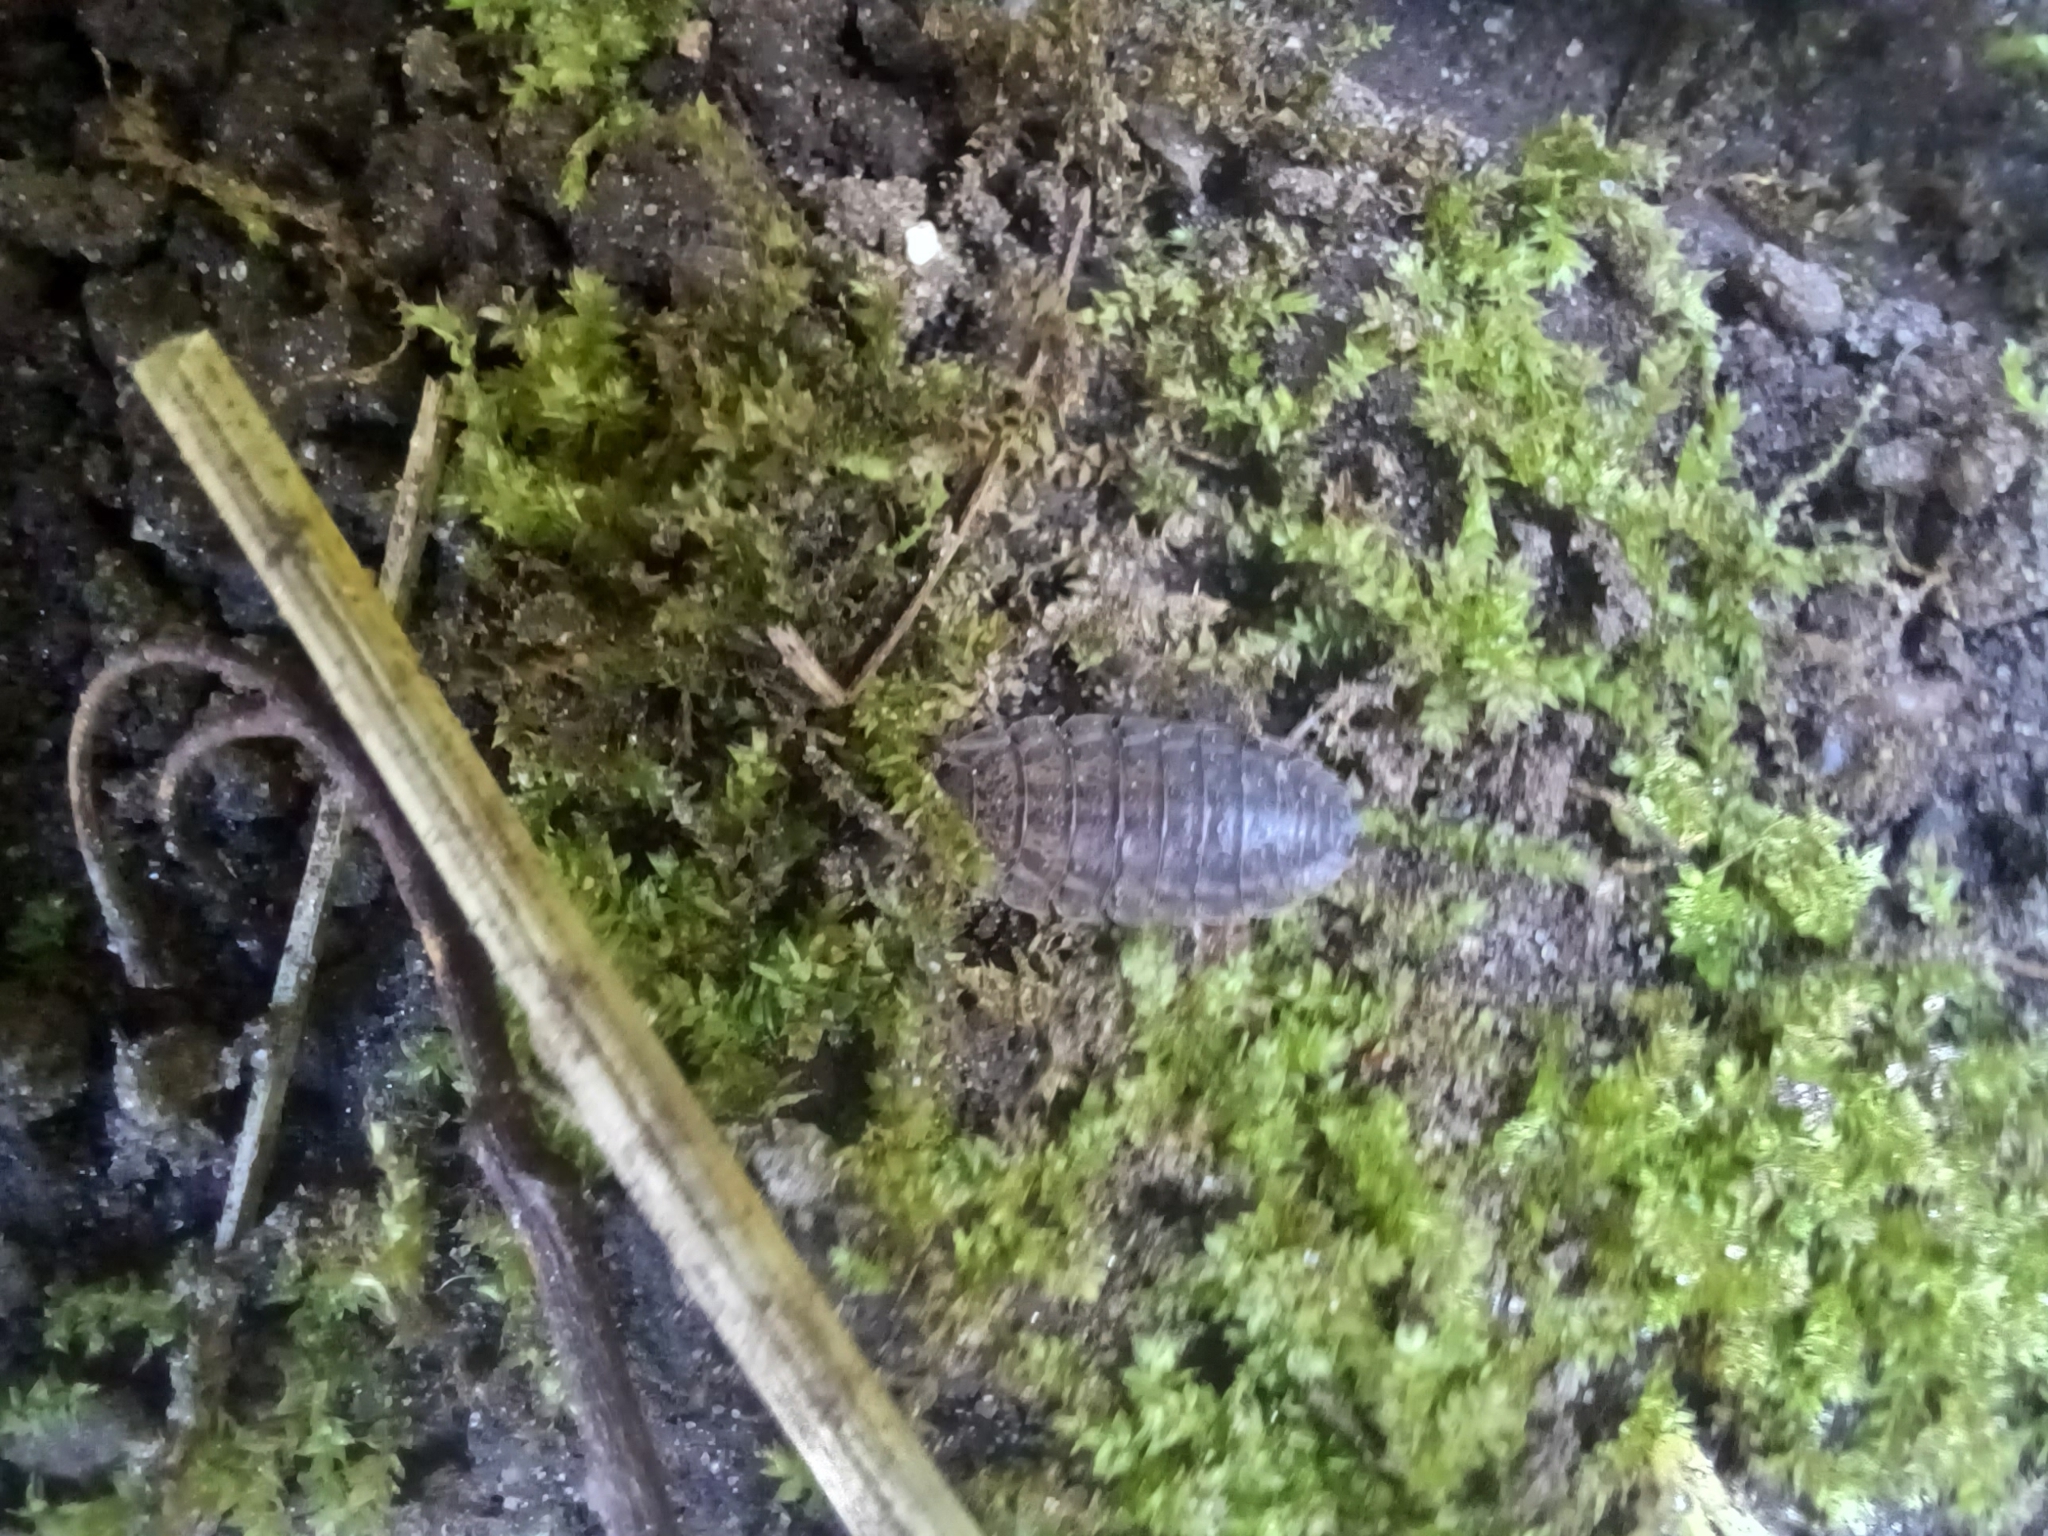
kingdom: Animalia
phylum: Arthropoda
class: Malacostraca
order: Isopoda
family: Porcellionidae
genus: Porcellio
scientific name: Porcellio scaber
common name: Common rough woodlouse
